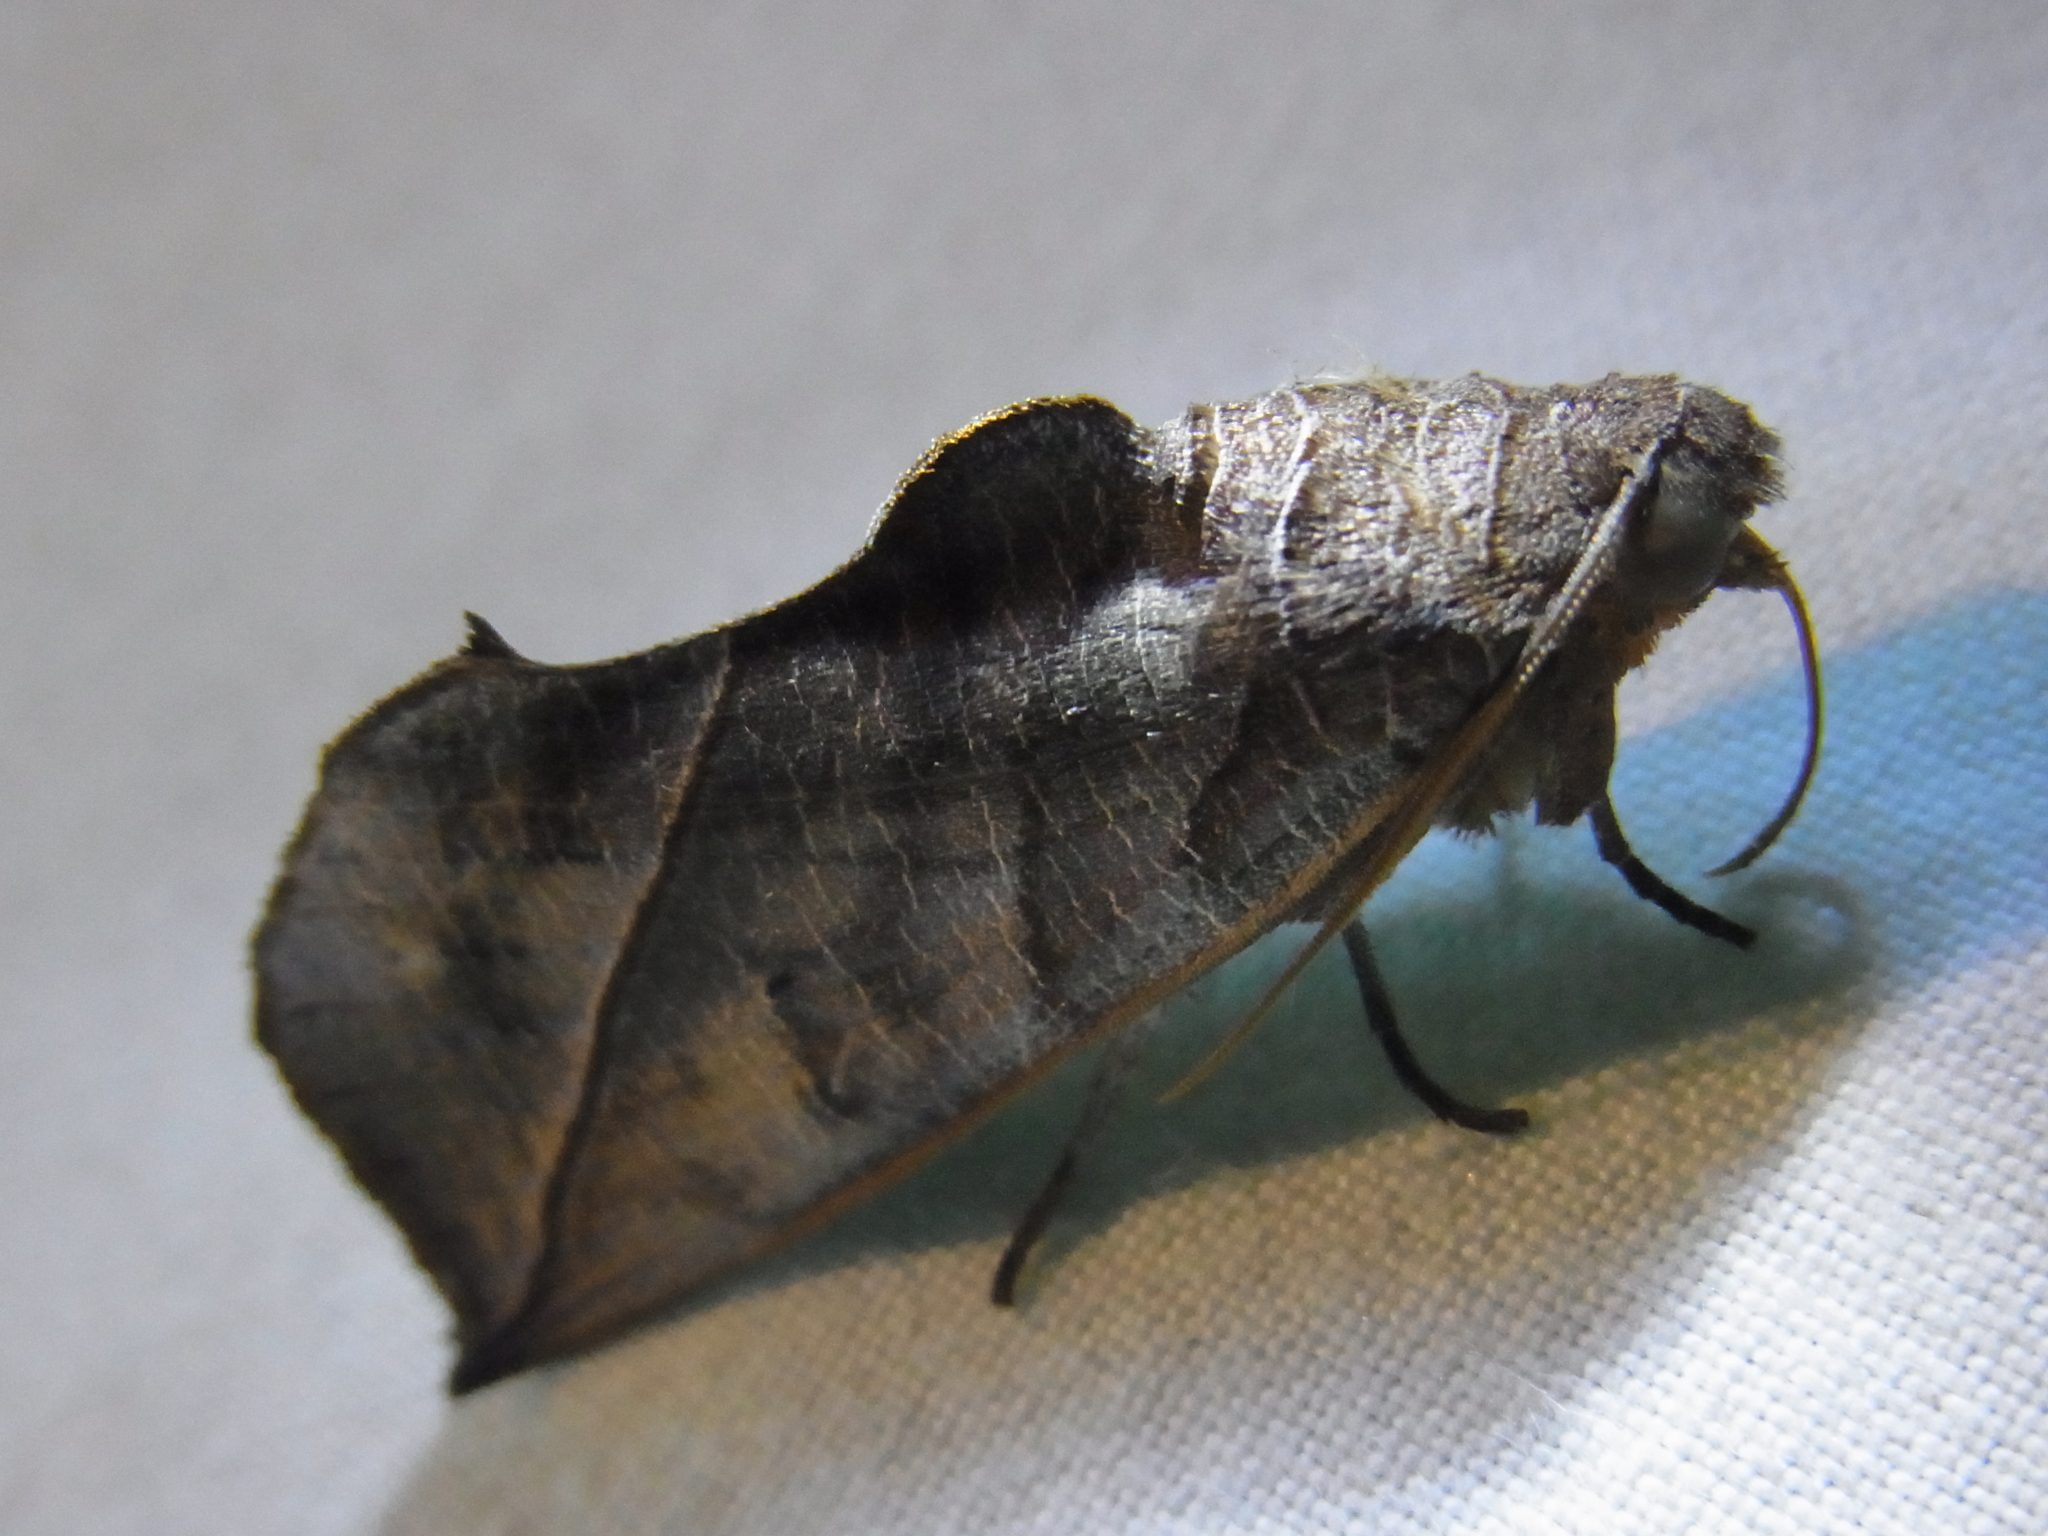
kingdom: Animalia
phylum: Arthropoda
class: Insecta
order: Lepidoptera
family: Erebidae
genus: Calyptra
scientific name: Calyptra gruesa
